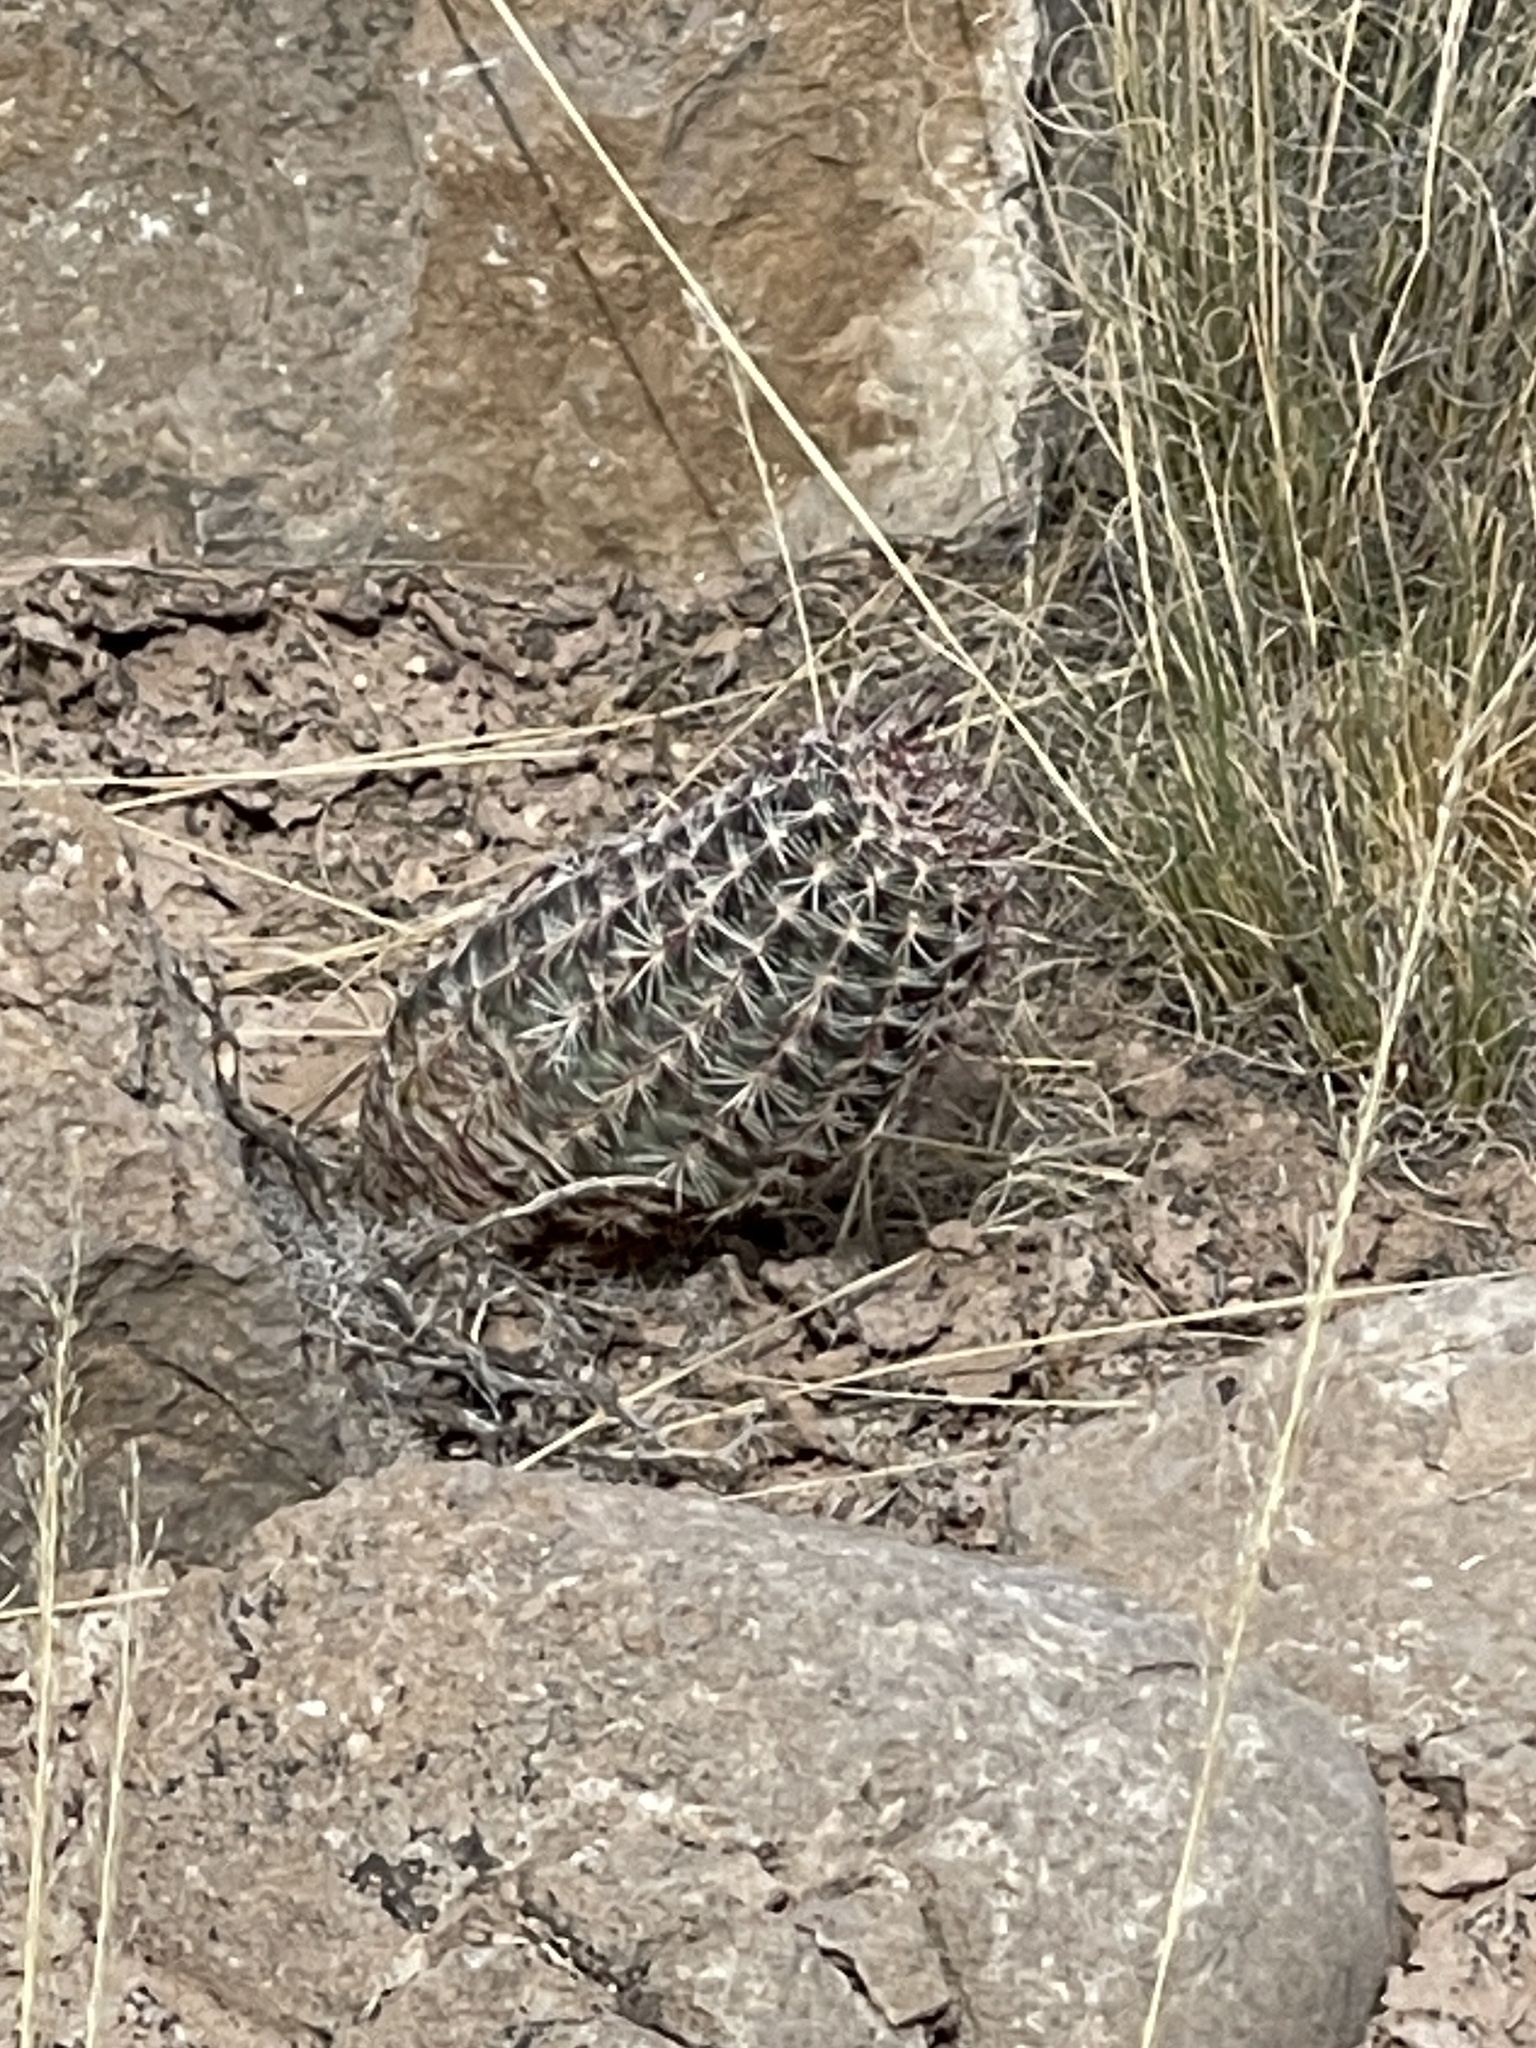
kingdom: Plantae
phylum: Tracheophyta
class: Magnoliopsida
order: Caryophyllales
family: Cactaceae
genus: Echinocereus
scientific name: Echinocereus viridiflorus
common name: Nylon hedgehog cactus
